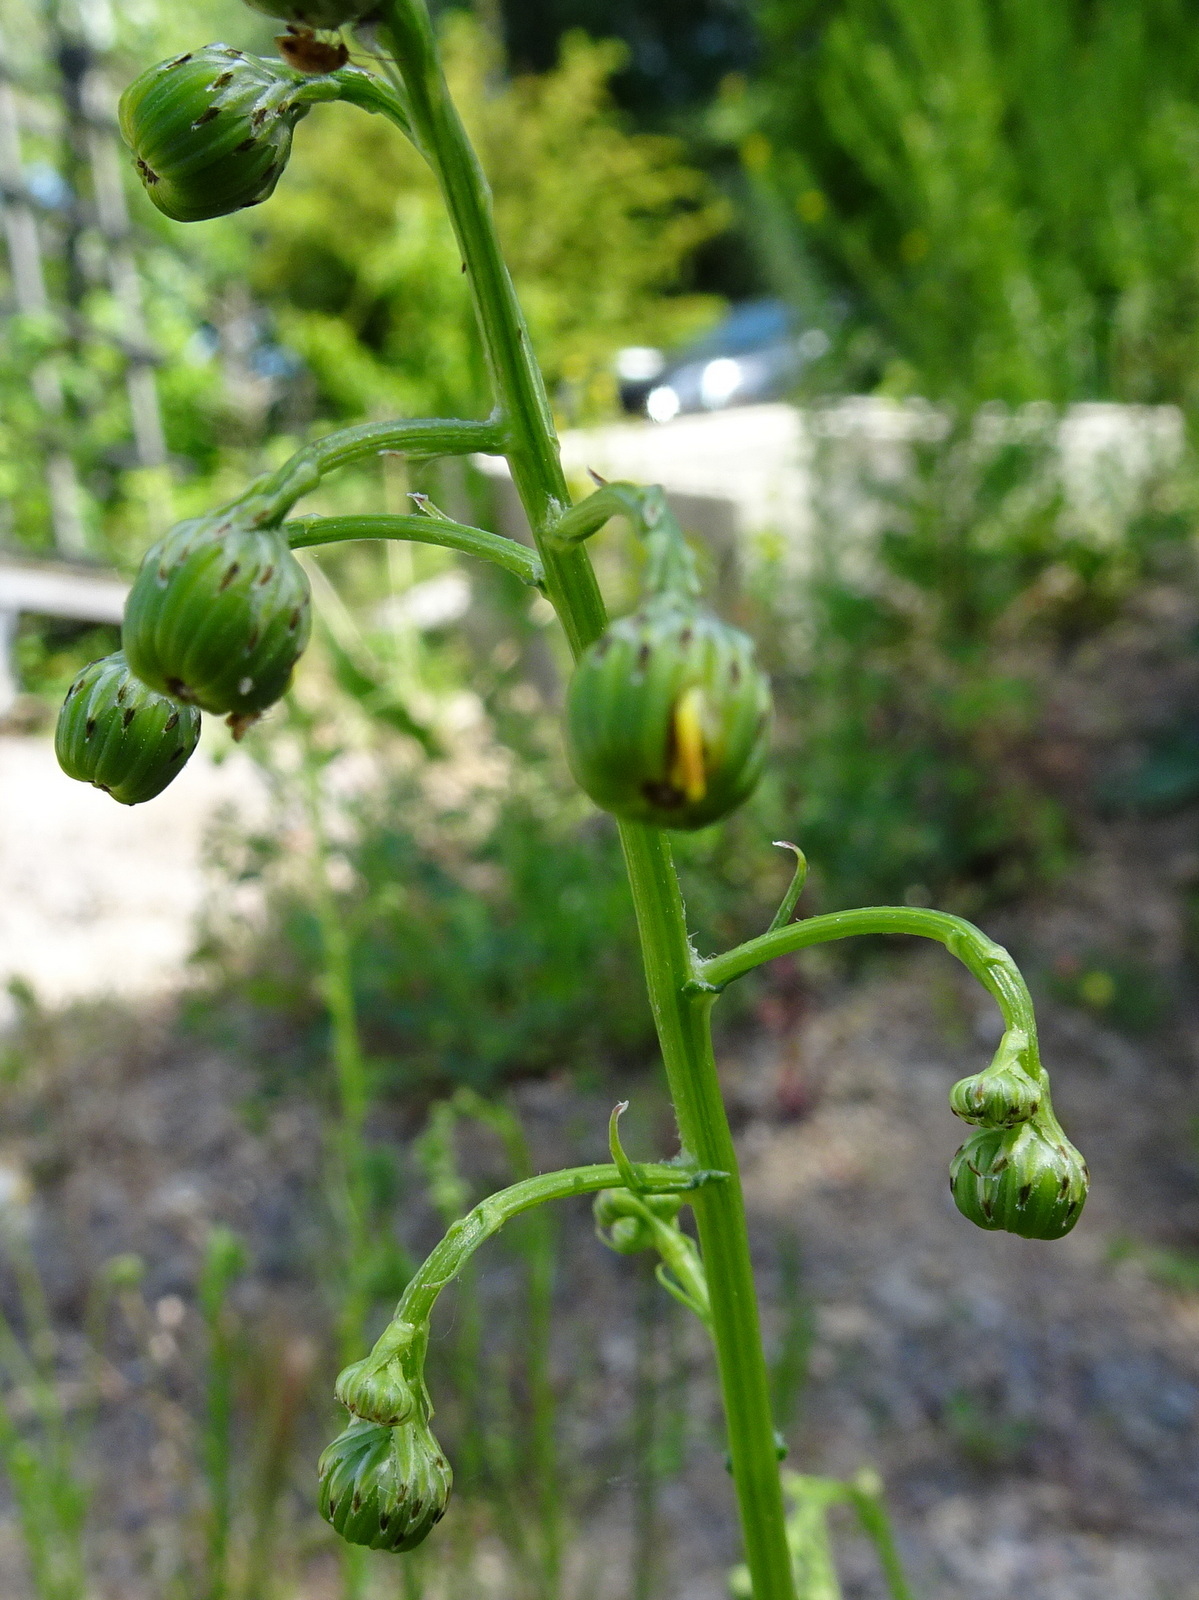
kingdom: Plantae
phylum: Tracheophyta
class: Magnoliopsida
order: Asterales
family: Asteraceae
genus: Senecio
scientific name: Senecio inaequidens
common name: Narrow-leaved ragwort
